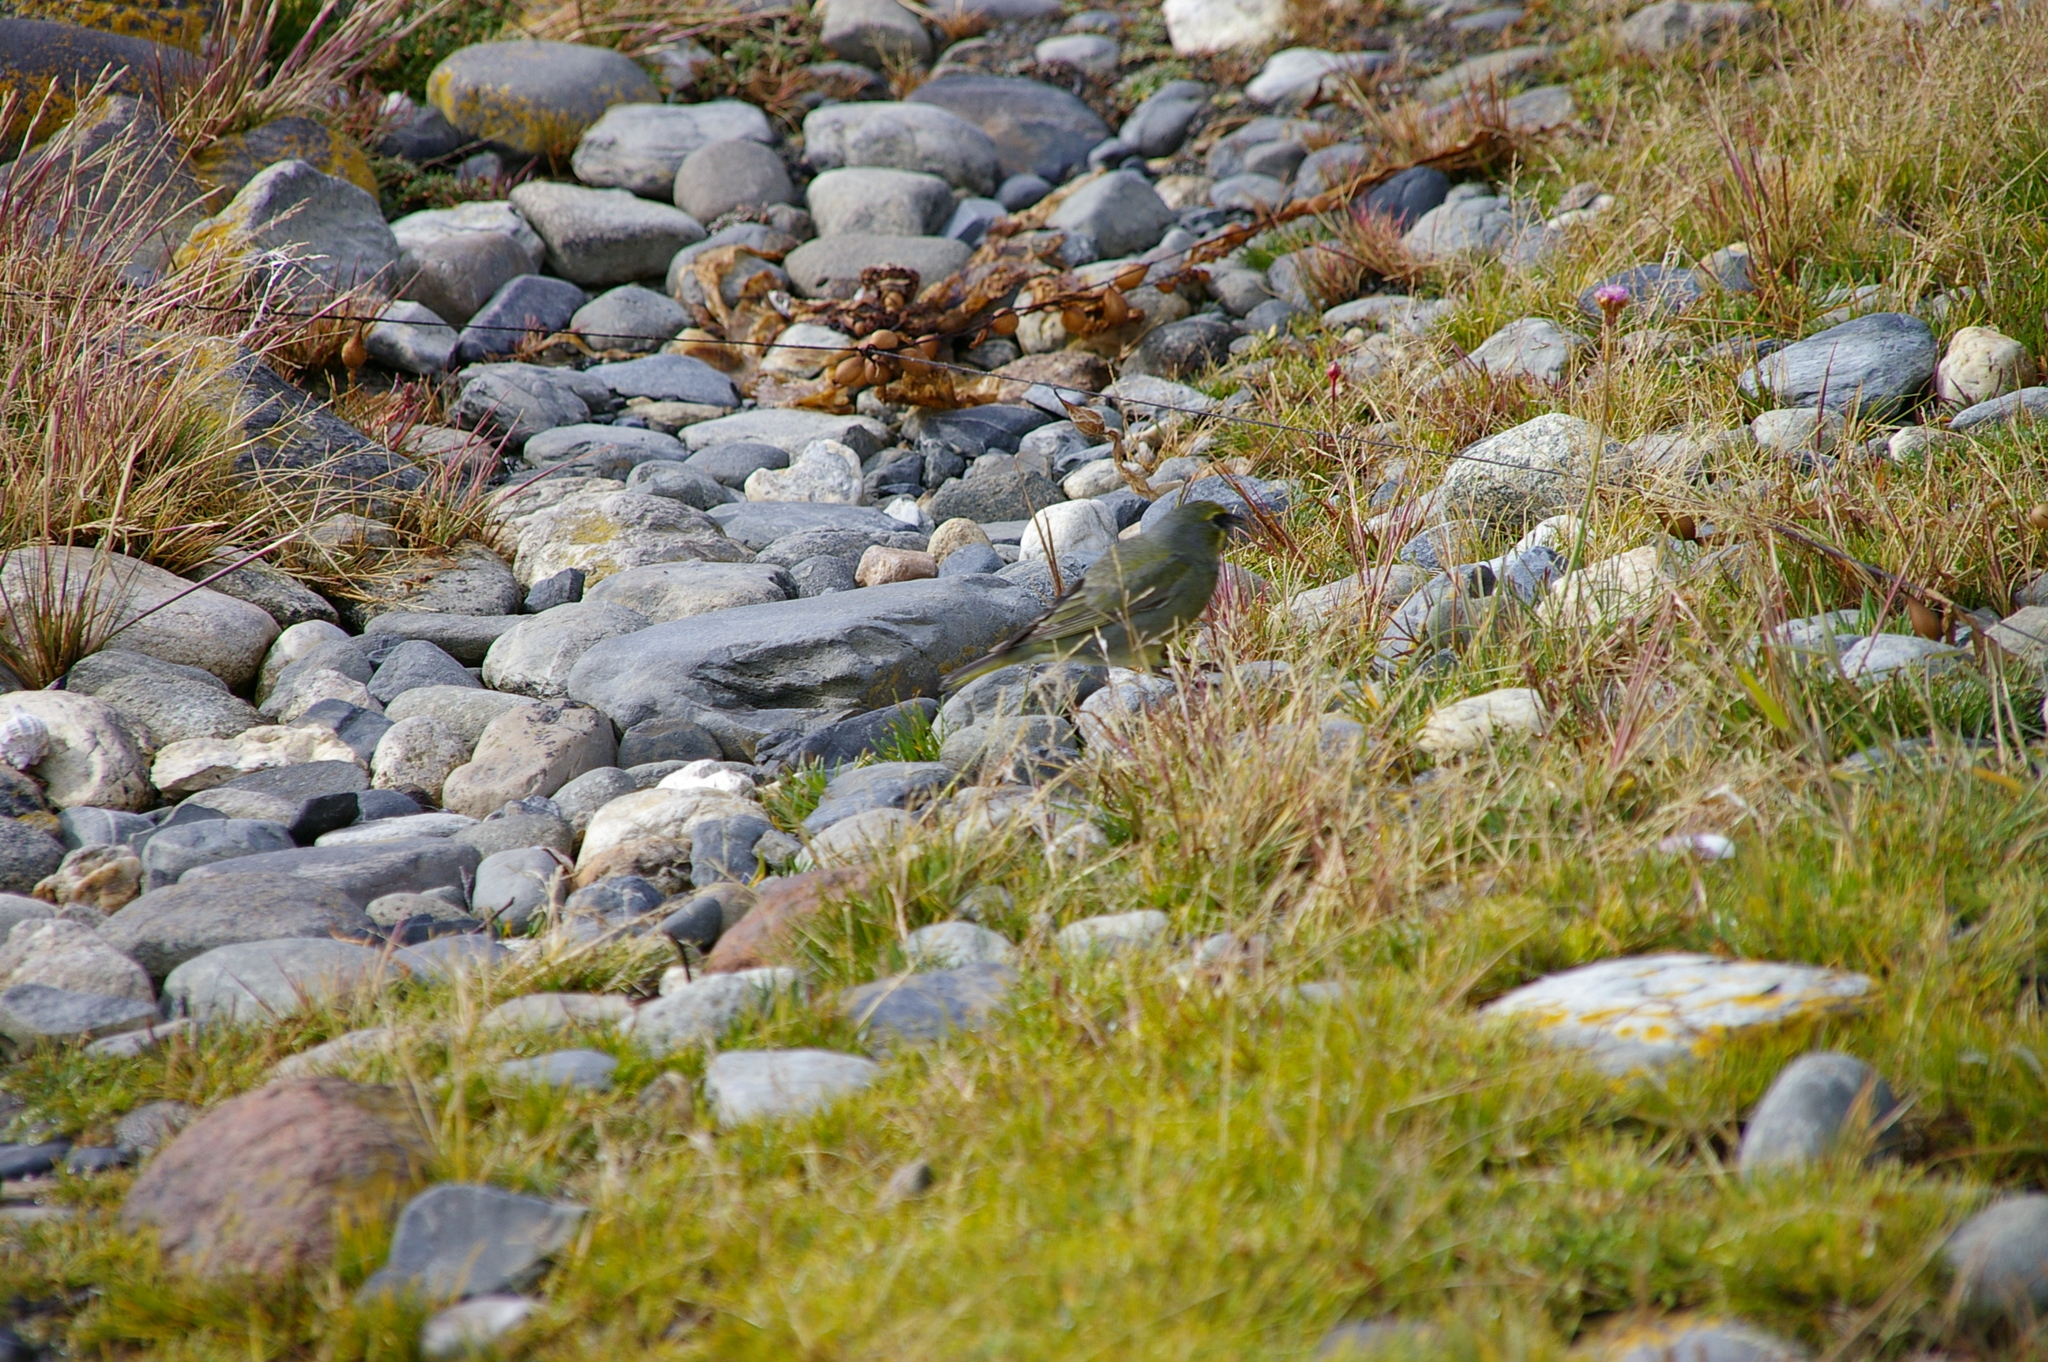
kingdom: Animalia
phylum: Chordata
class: Aves
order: Passeriformes
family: Thraupidae
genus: Melanodera
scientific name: Melanodera xanthogramma
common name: Yellow-bridled finch
